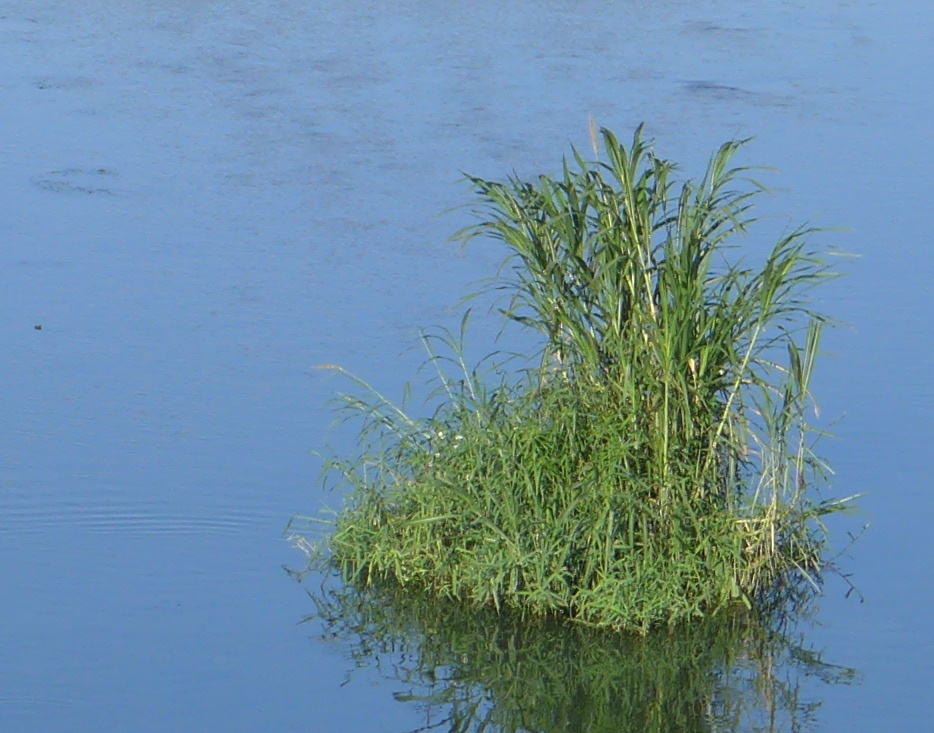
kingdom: Plantae
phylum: Tracheophyta
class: Liliopsida
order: Poales
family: Poaceae
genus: Cenchrus
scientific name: Cenchrus purpureus
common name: Elephant grass
